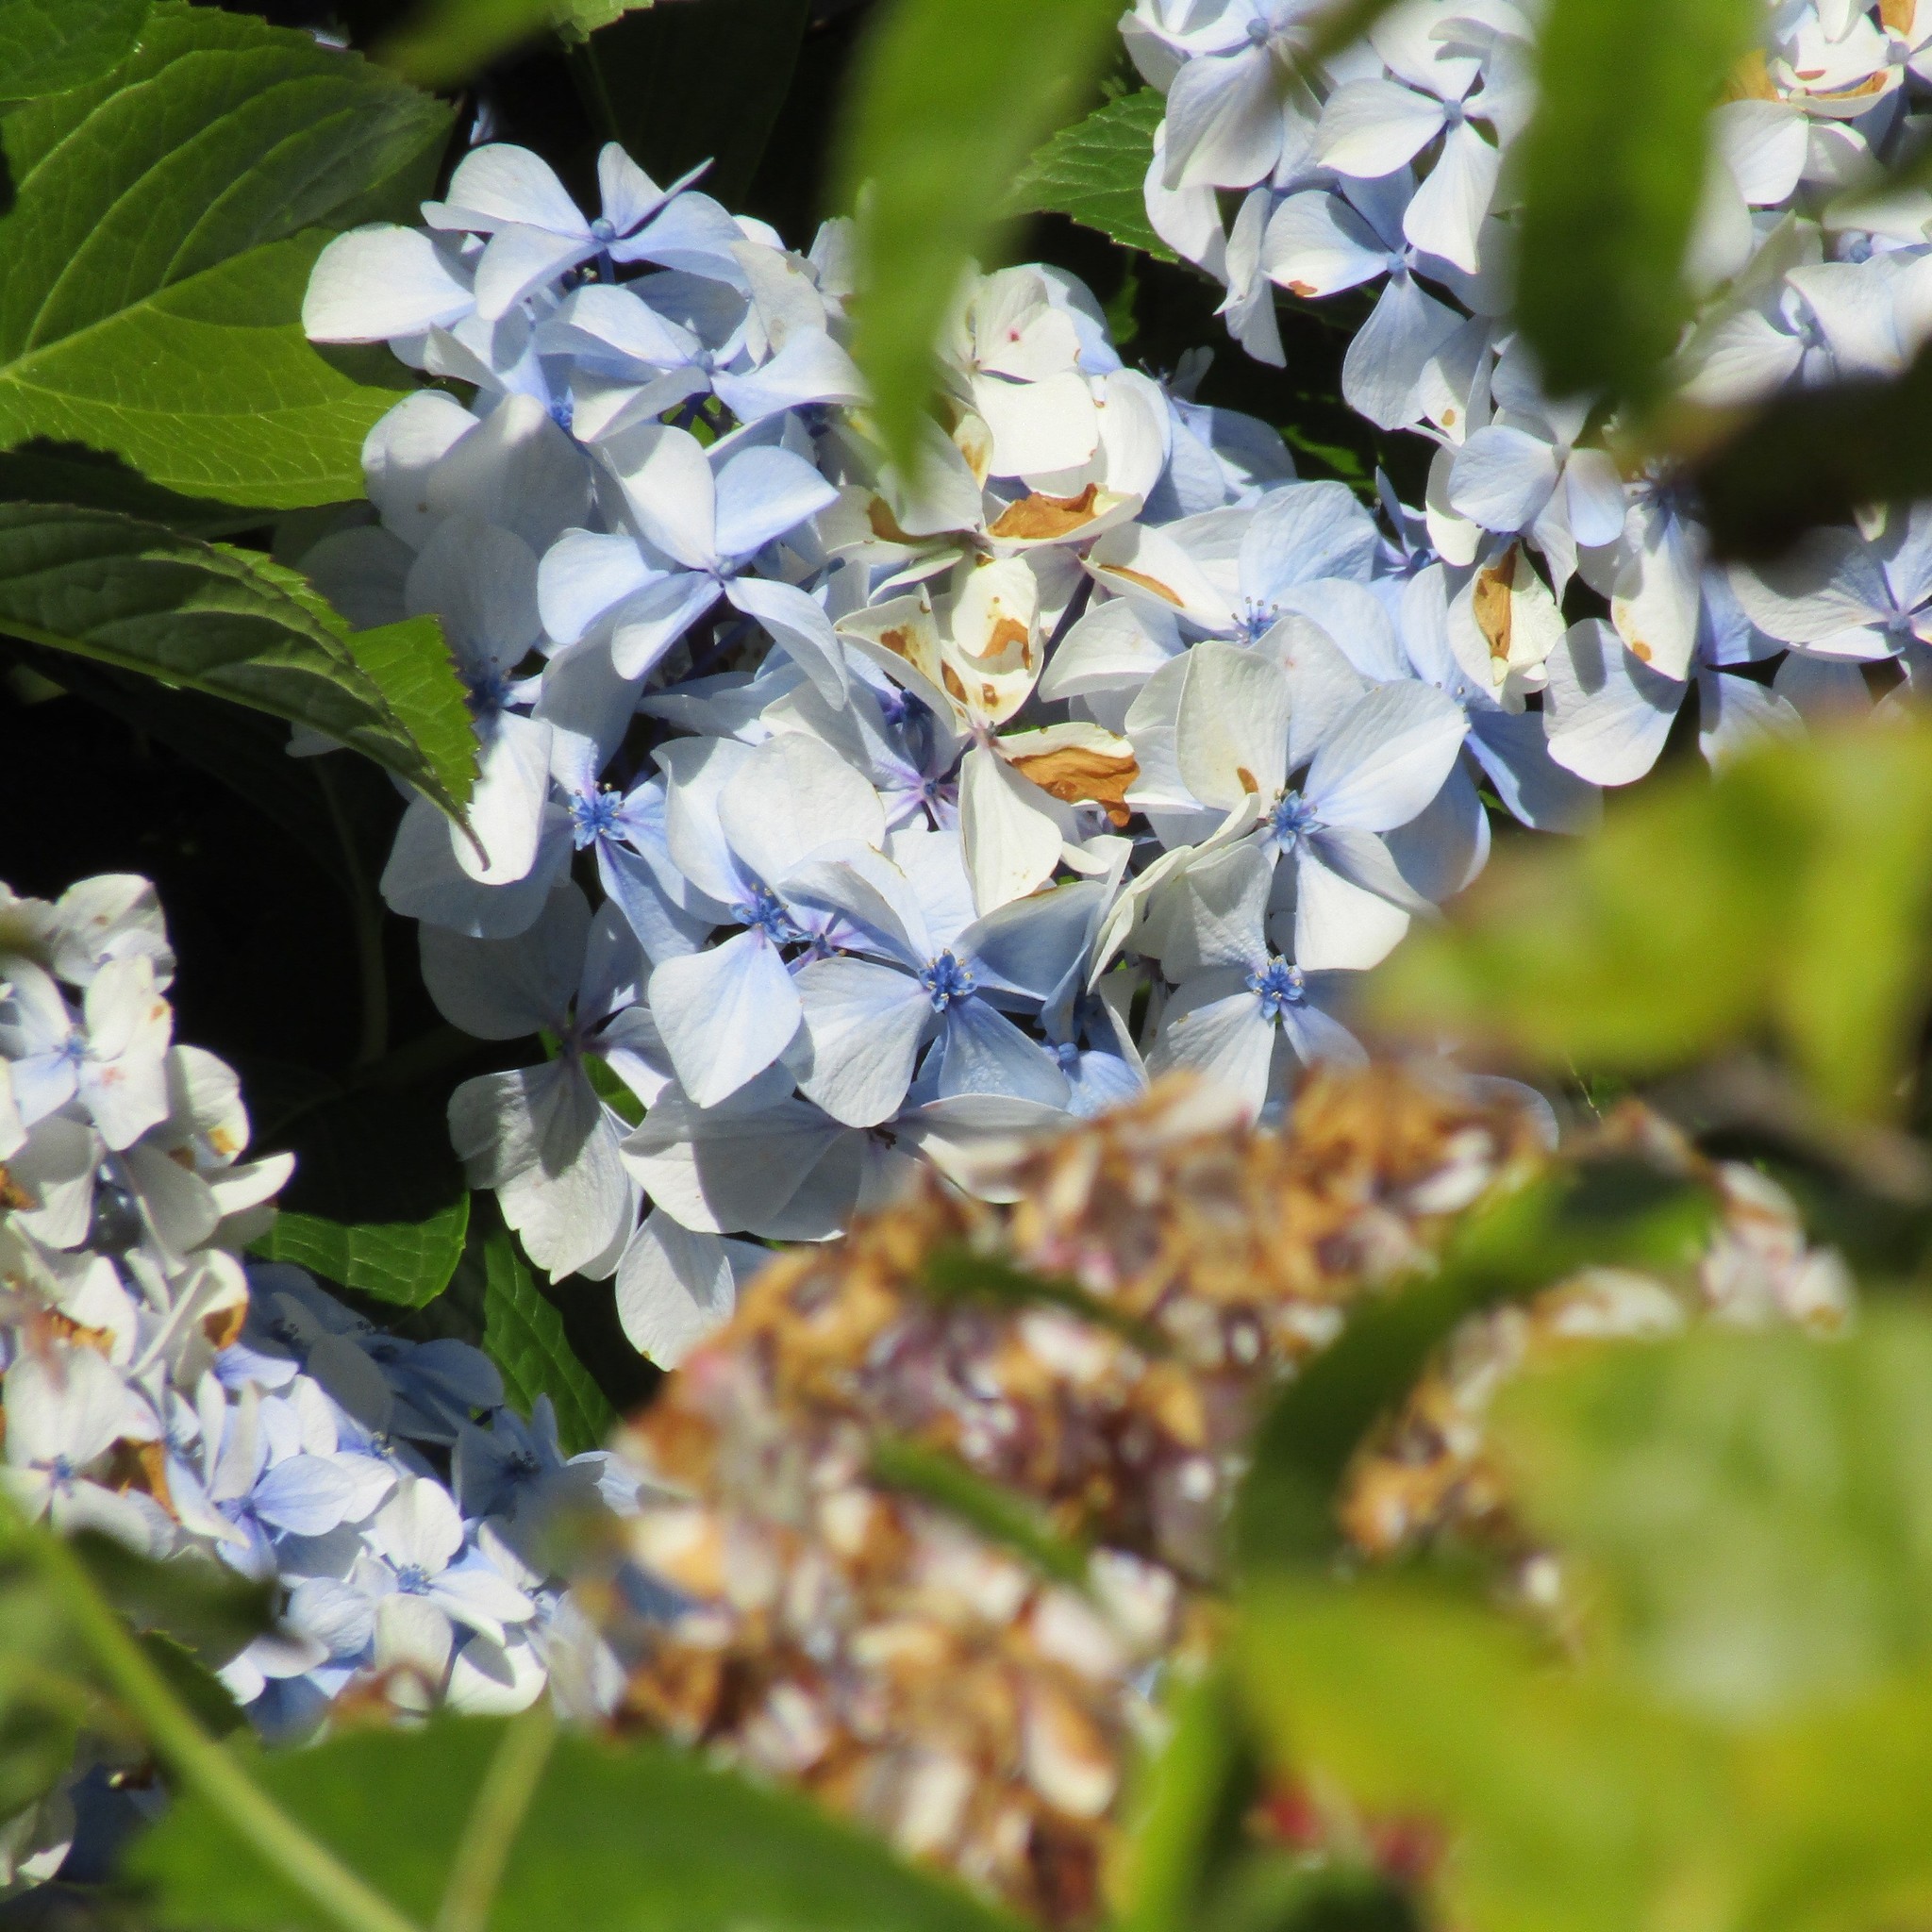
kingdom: Plantae
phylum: Tracheophyta
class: Magnoliopsida
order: Cornales
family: Hydrangeaceae
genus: Hydrangea
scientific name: Hydrangea macrophylla
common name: Hydrangea
